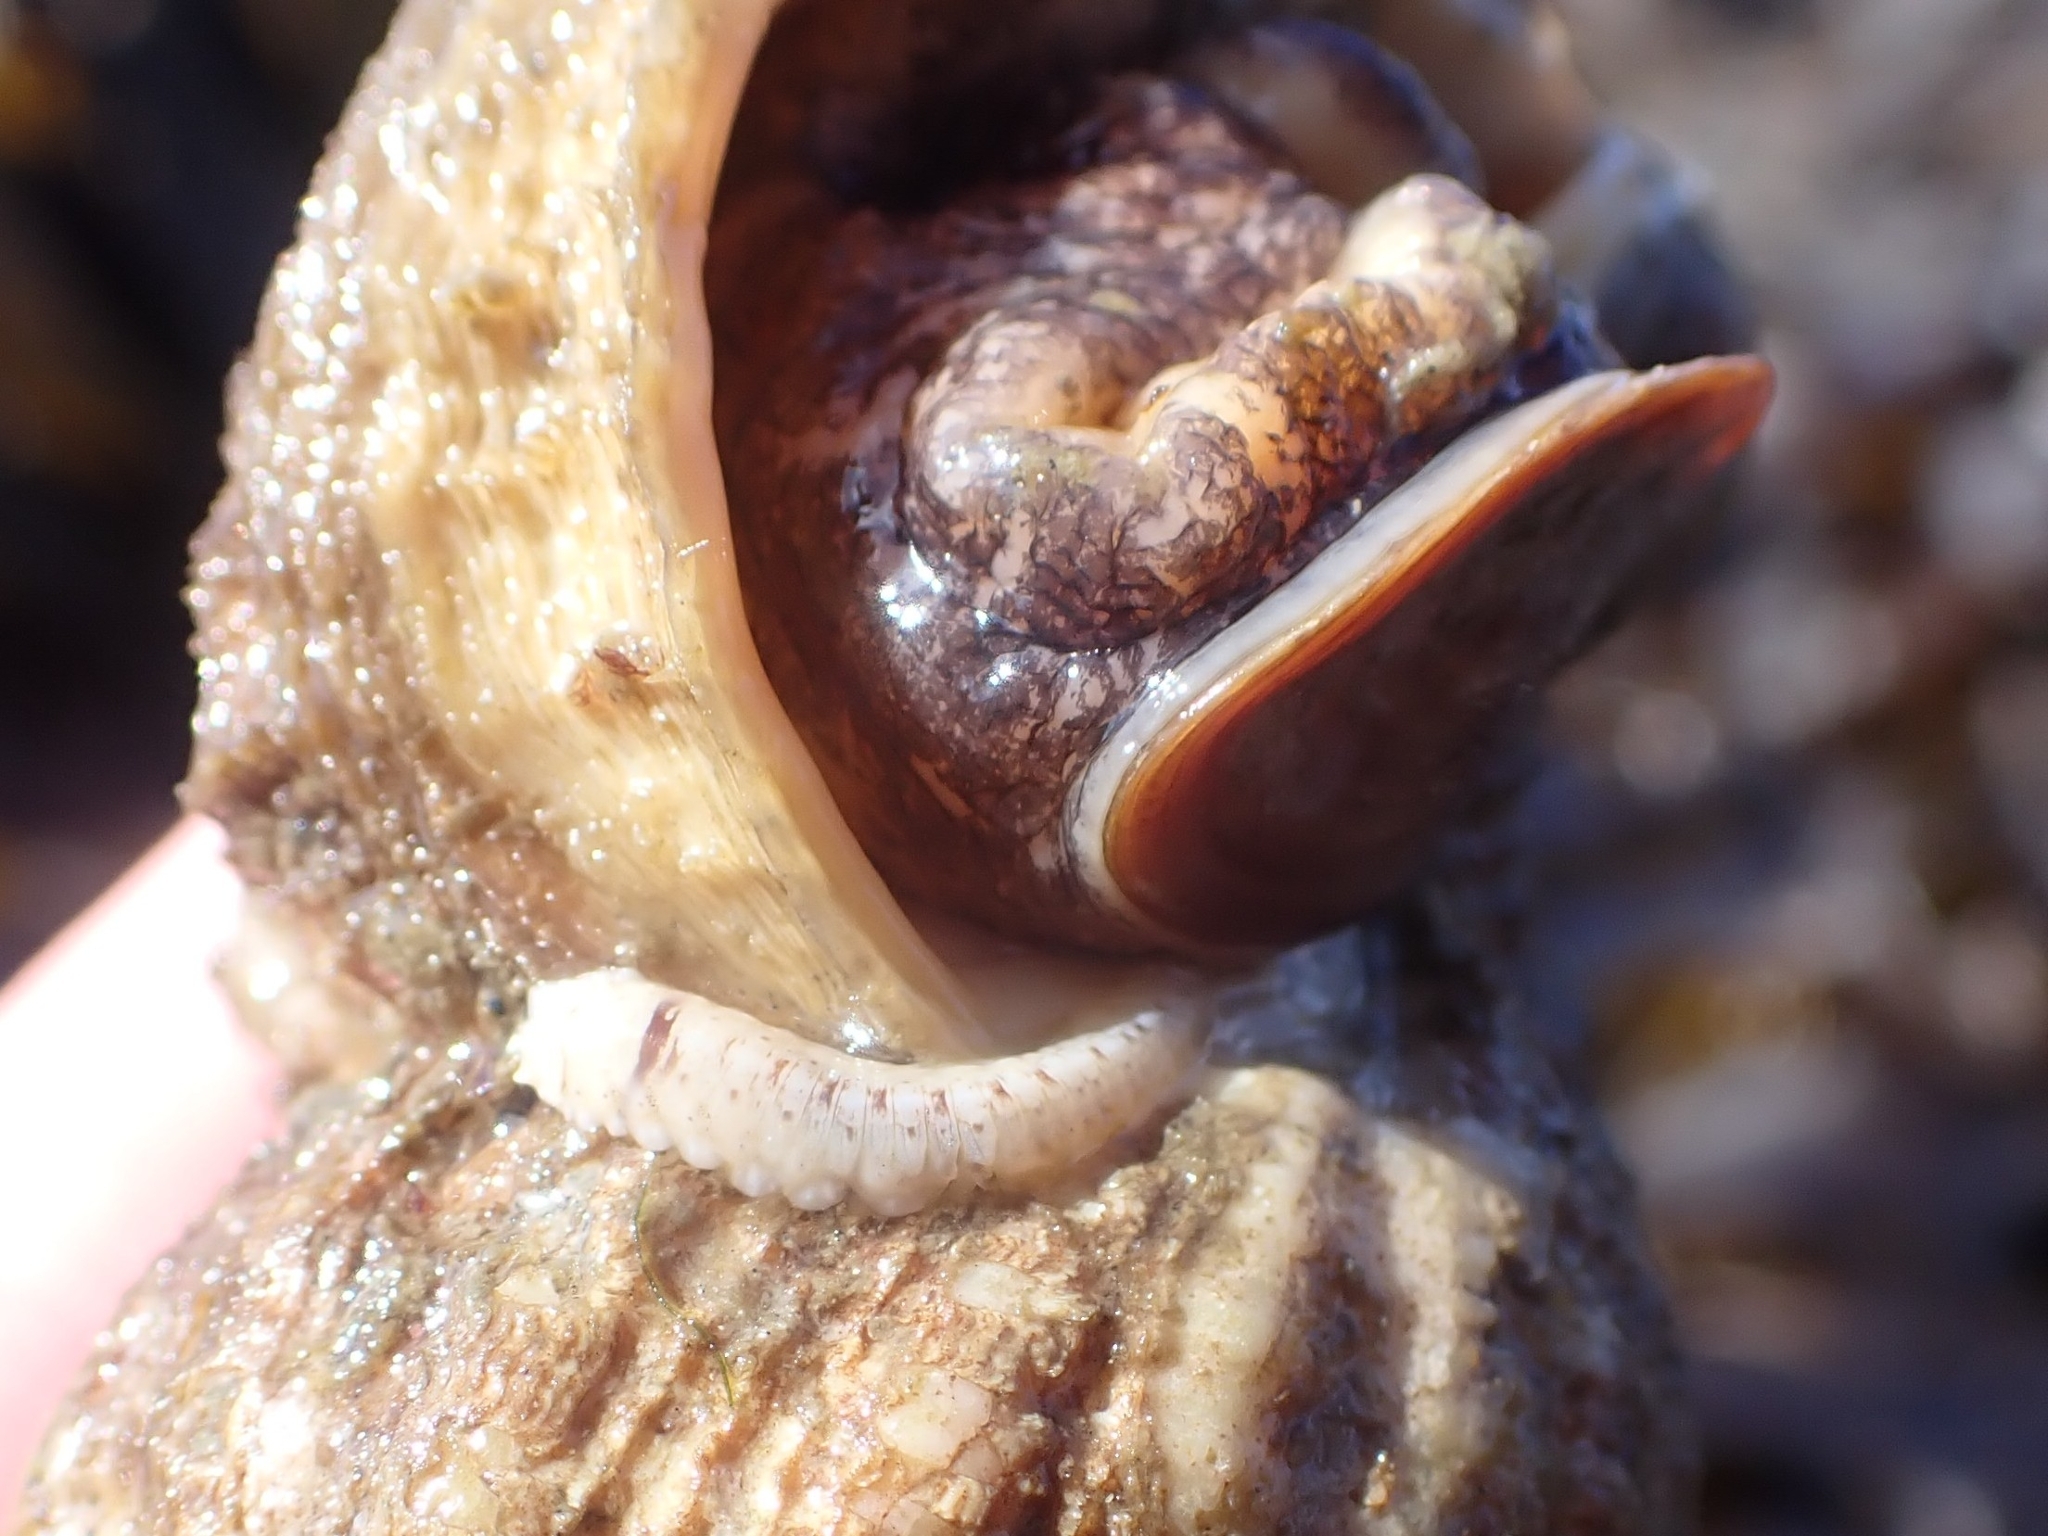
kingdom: Animalia
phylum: Annelida
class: Polychaeta
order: Phyllodocida
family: Polynoidae
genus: Arctonoe
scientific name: Arctonoe vittata
